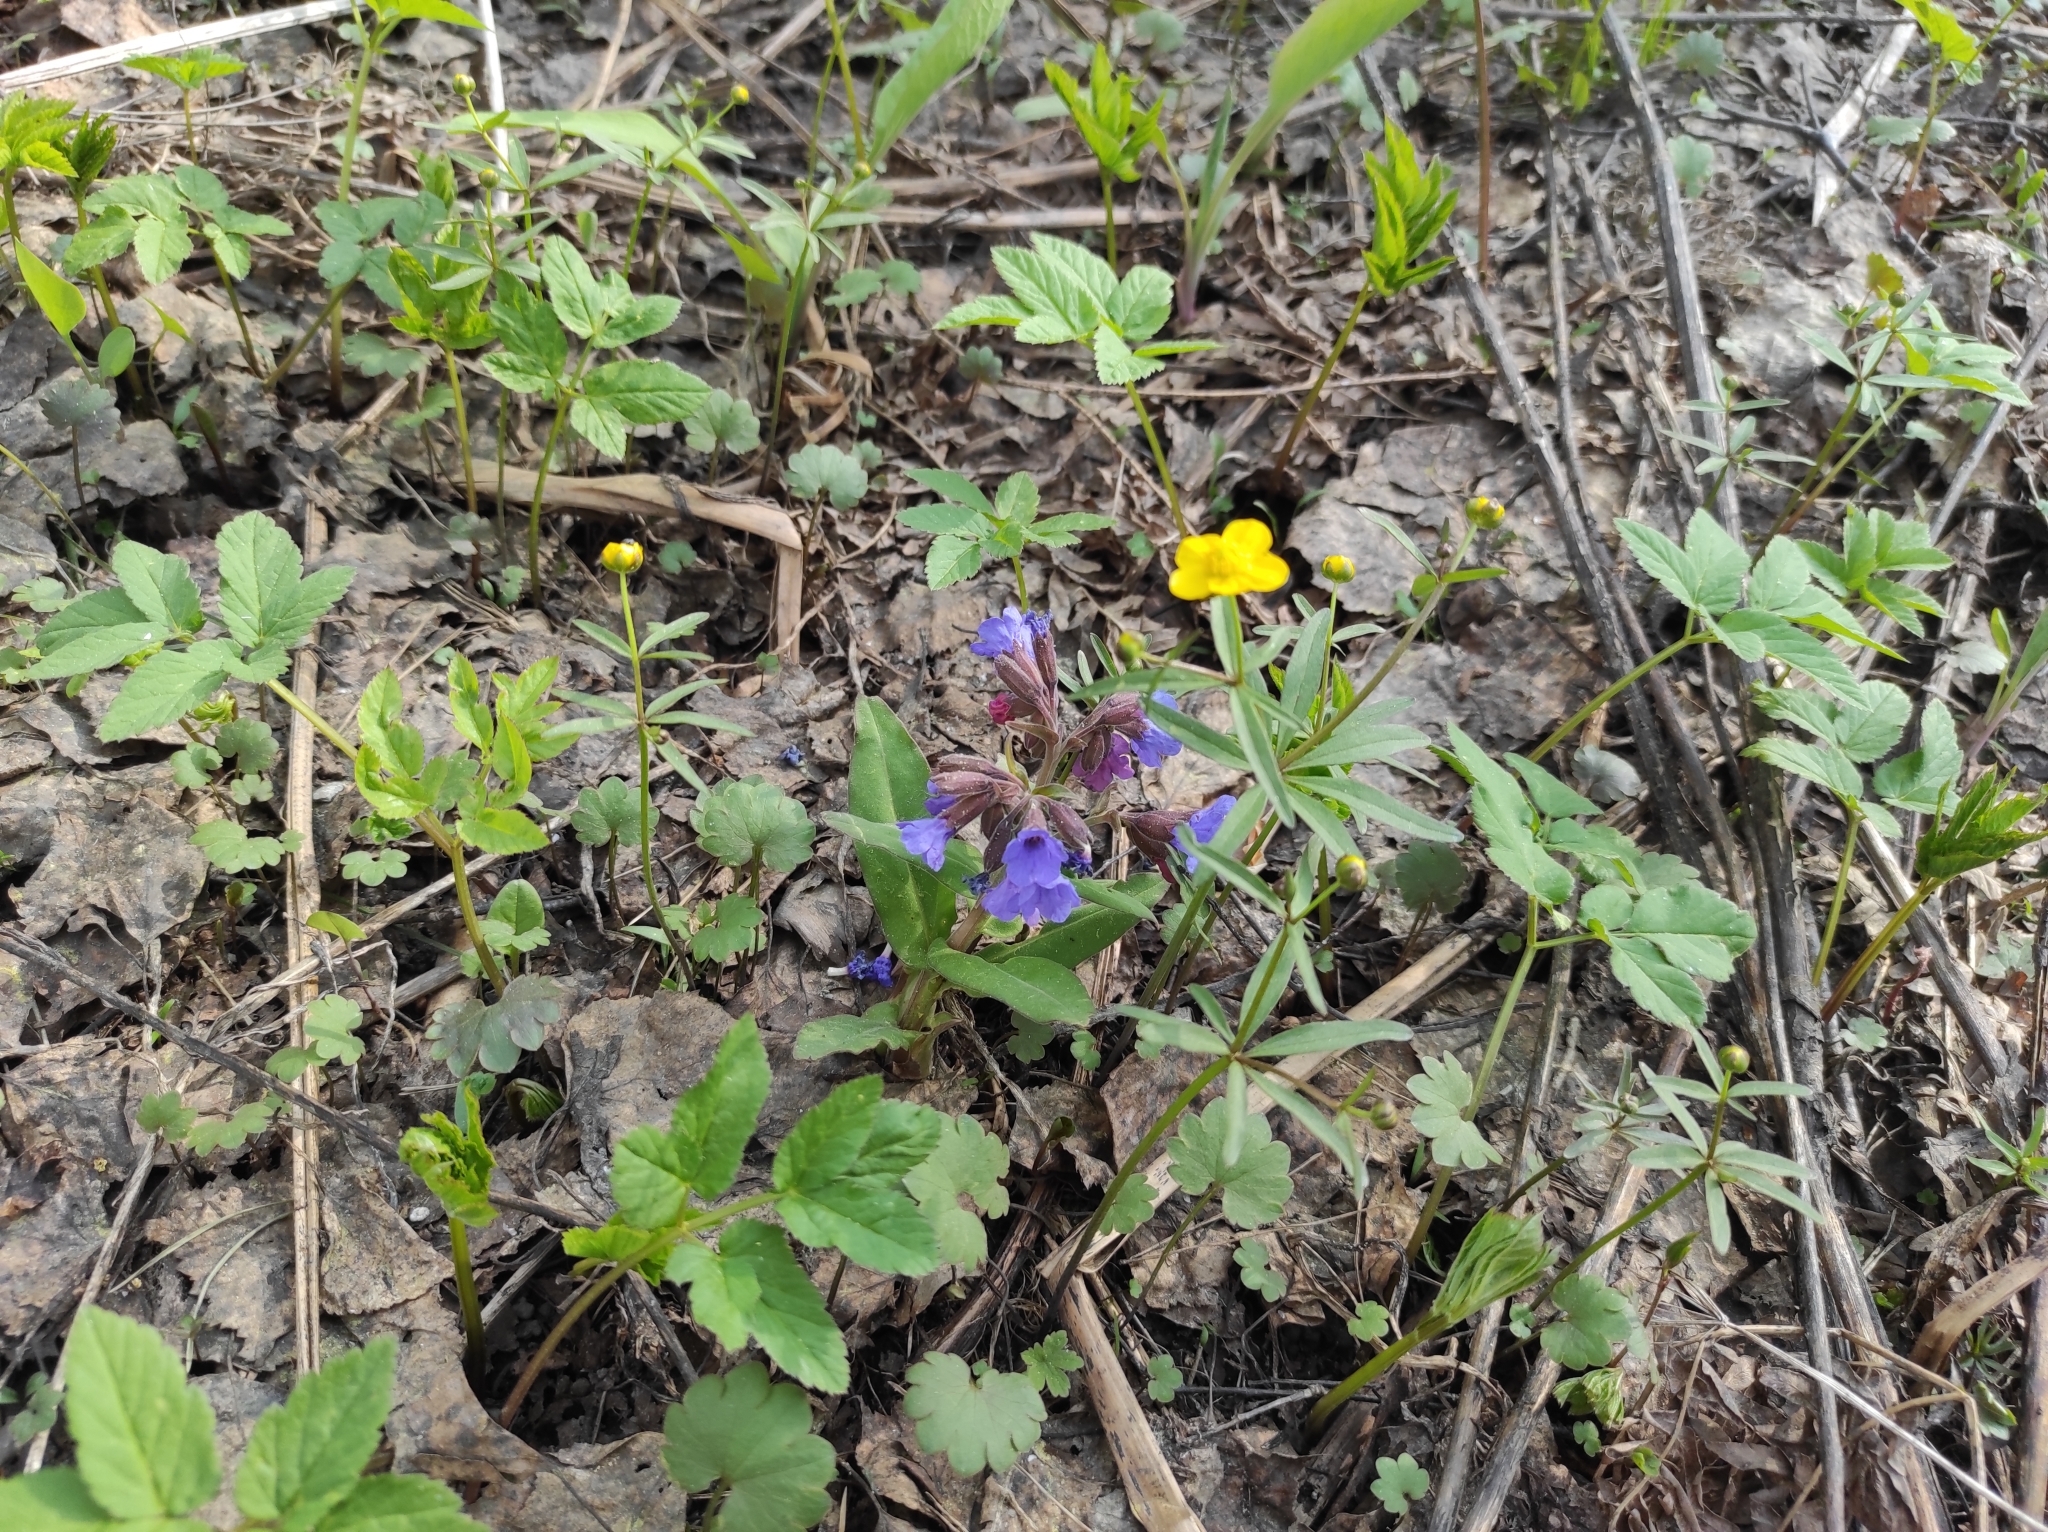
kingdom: Plantae
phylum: Tracheophyta
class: Magnoliopsida
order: Ranunculales
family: Ranunculaceae
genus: Ranunculus
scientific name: Ranunculus monophyllus
